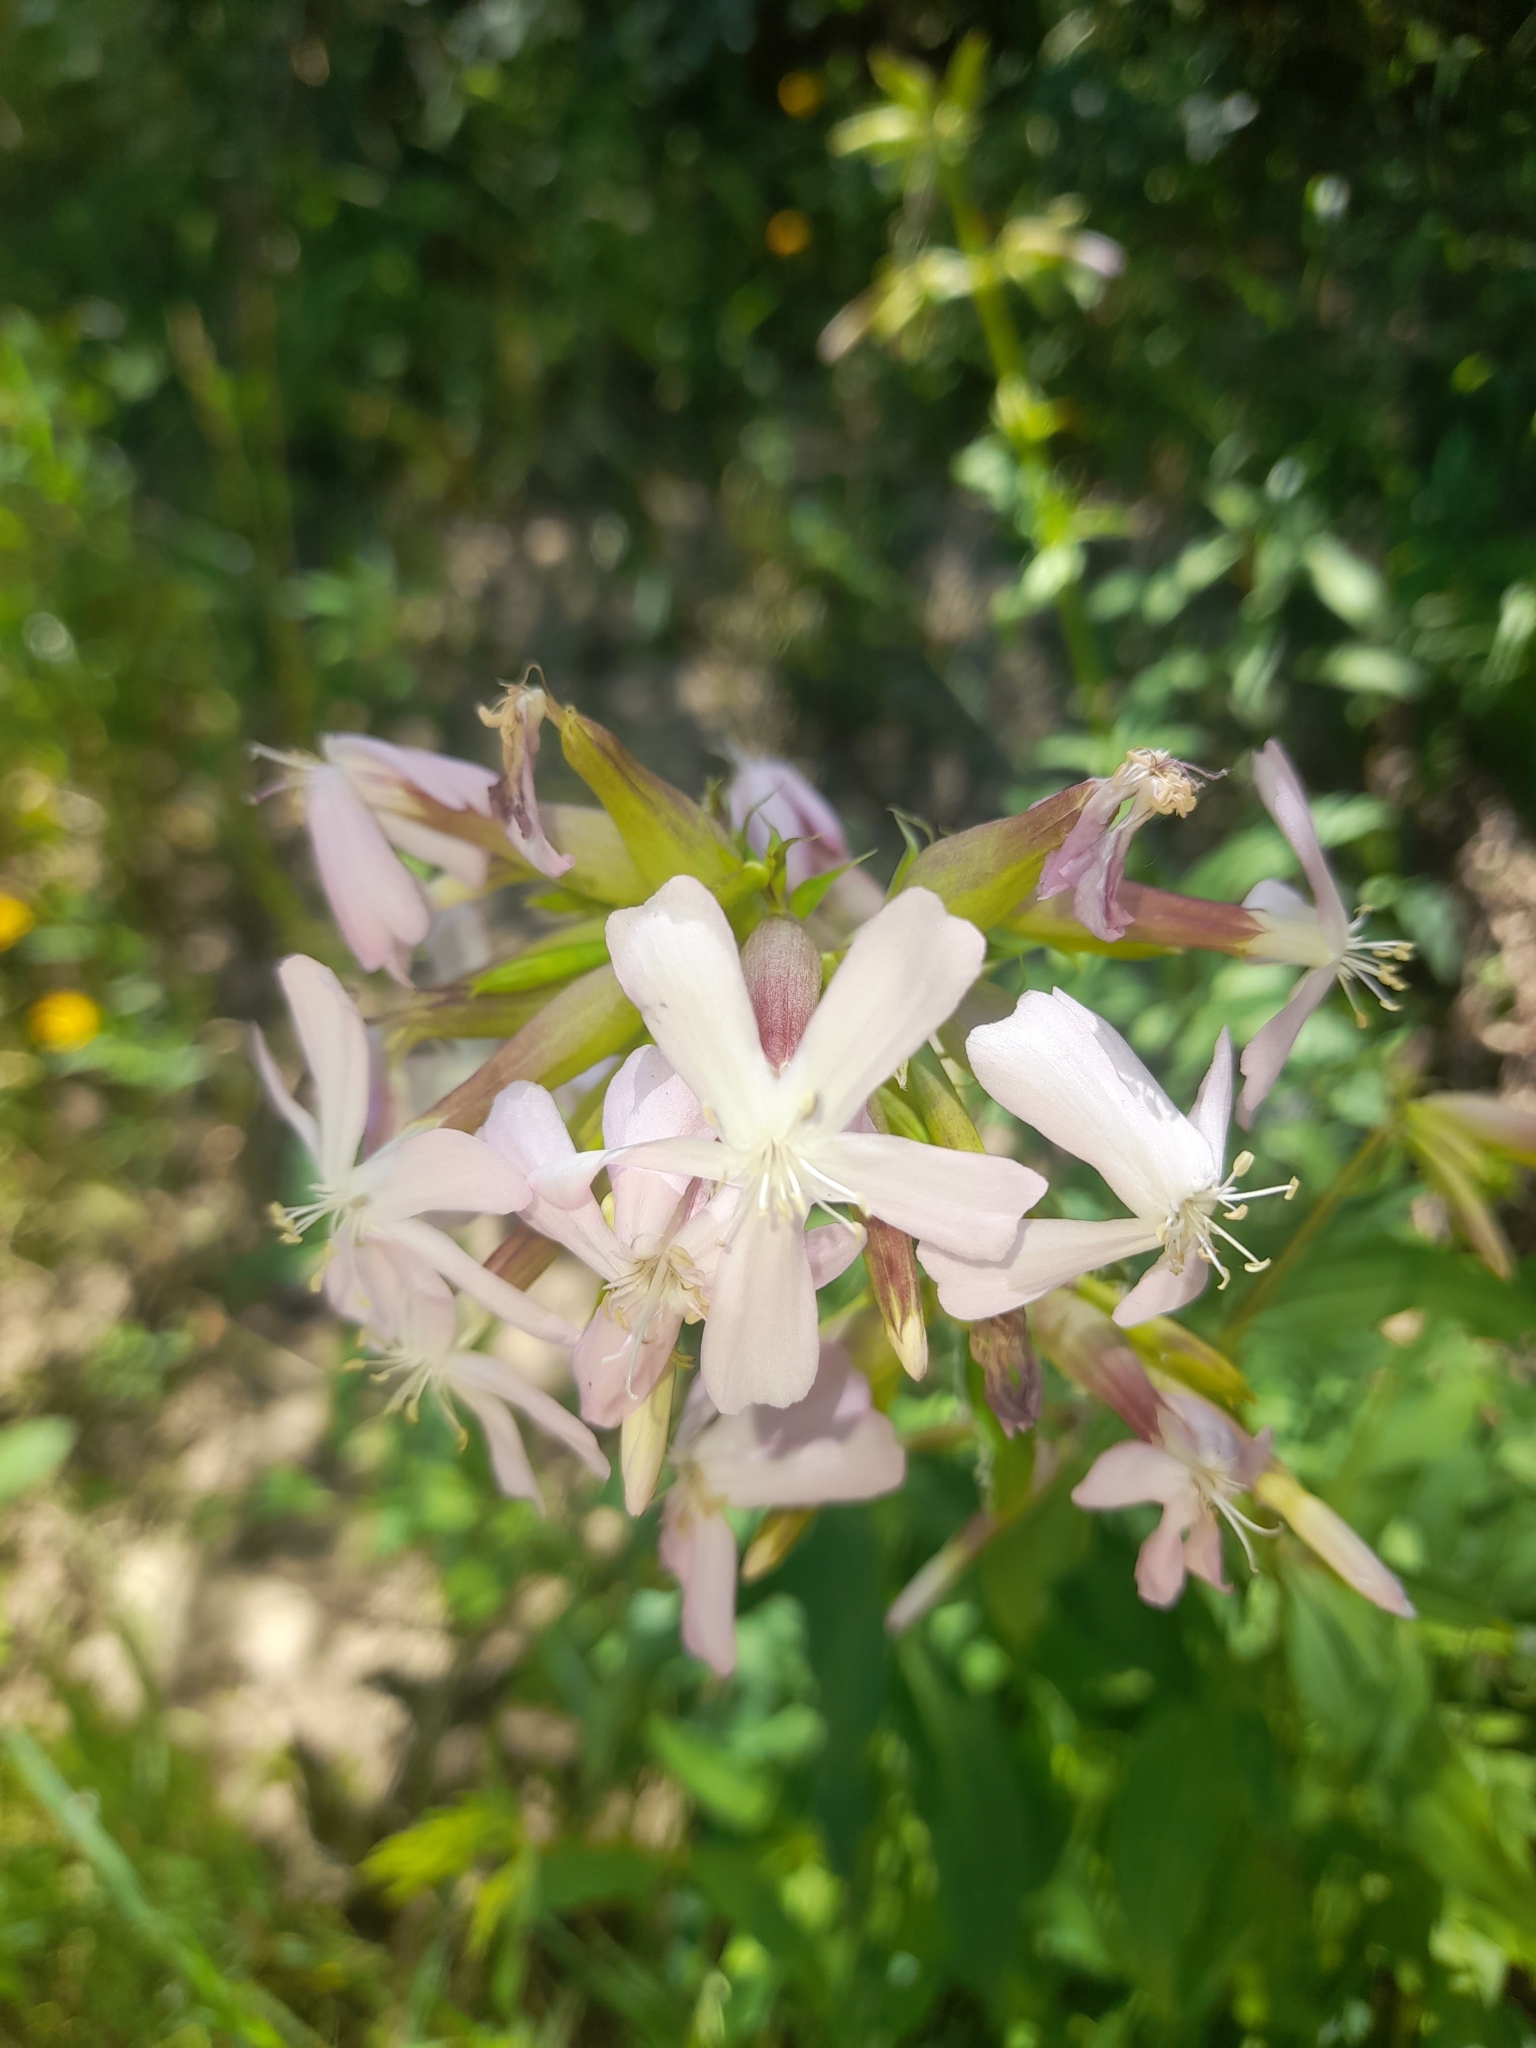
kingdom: Plantae
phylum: Tracheophyta
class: Magnoliopsida
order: Caryophyllales
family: Caryophyllaceae
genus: Saponaria
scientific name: Saponaria officinalis
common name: Soapwort
